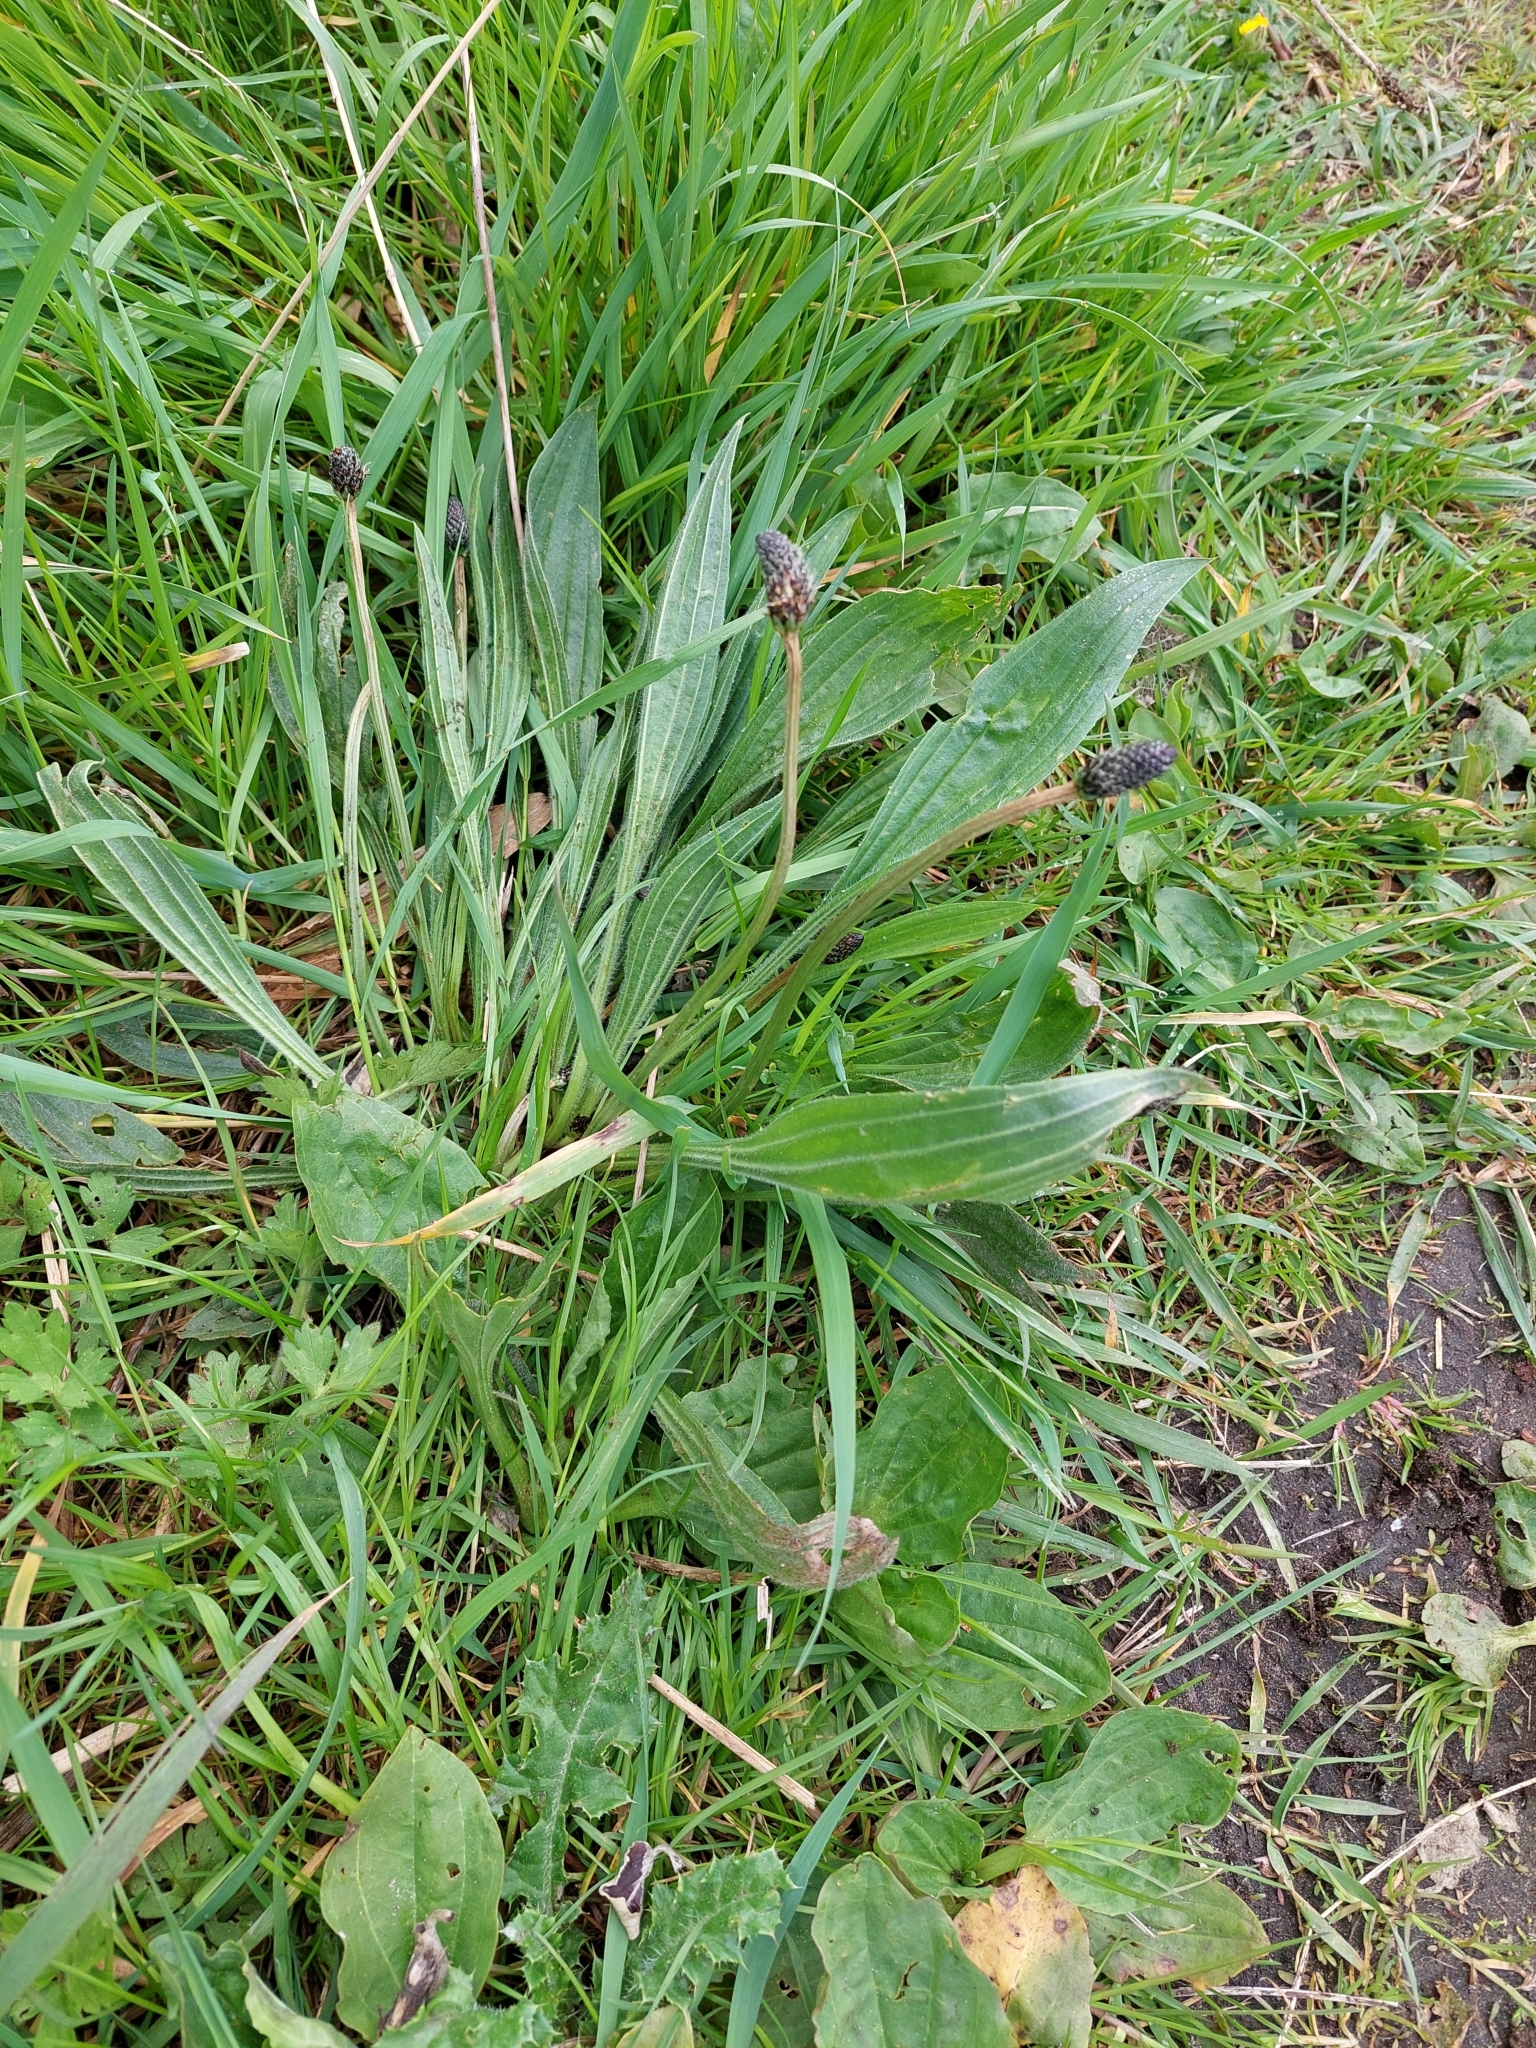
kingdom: Plantae
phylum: Tracheophyta
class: Magnoliopsida
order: Lamiales
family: Plantaginaceae
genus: Plantago
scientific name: Plantago lanceolata
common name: Ribwort plantain
